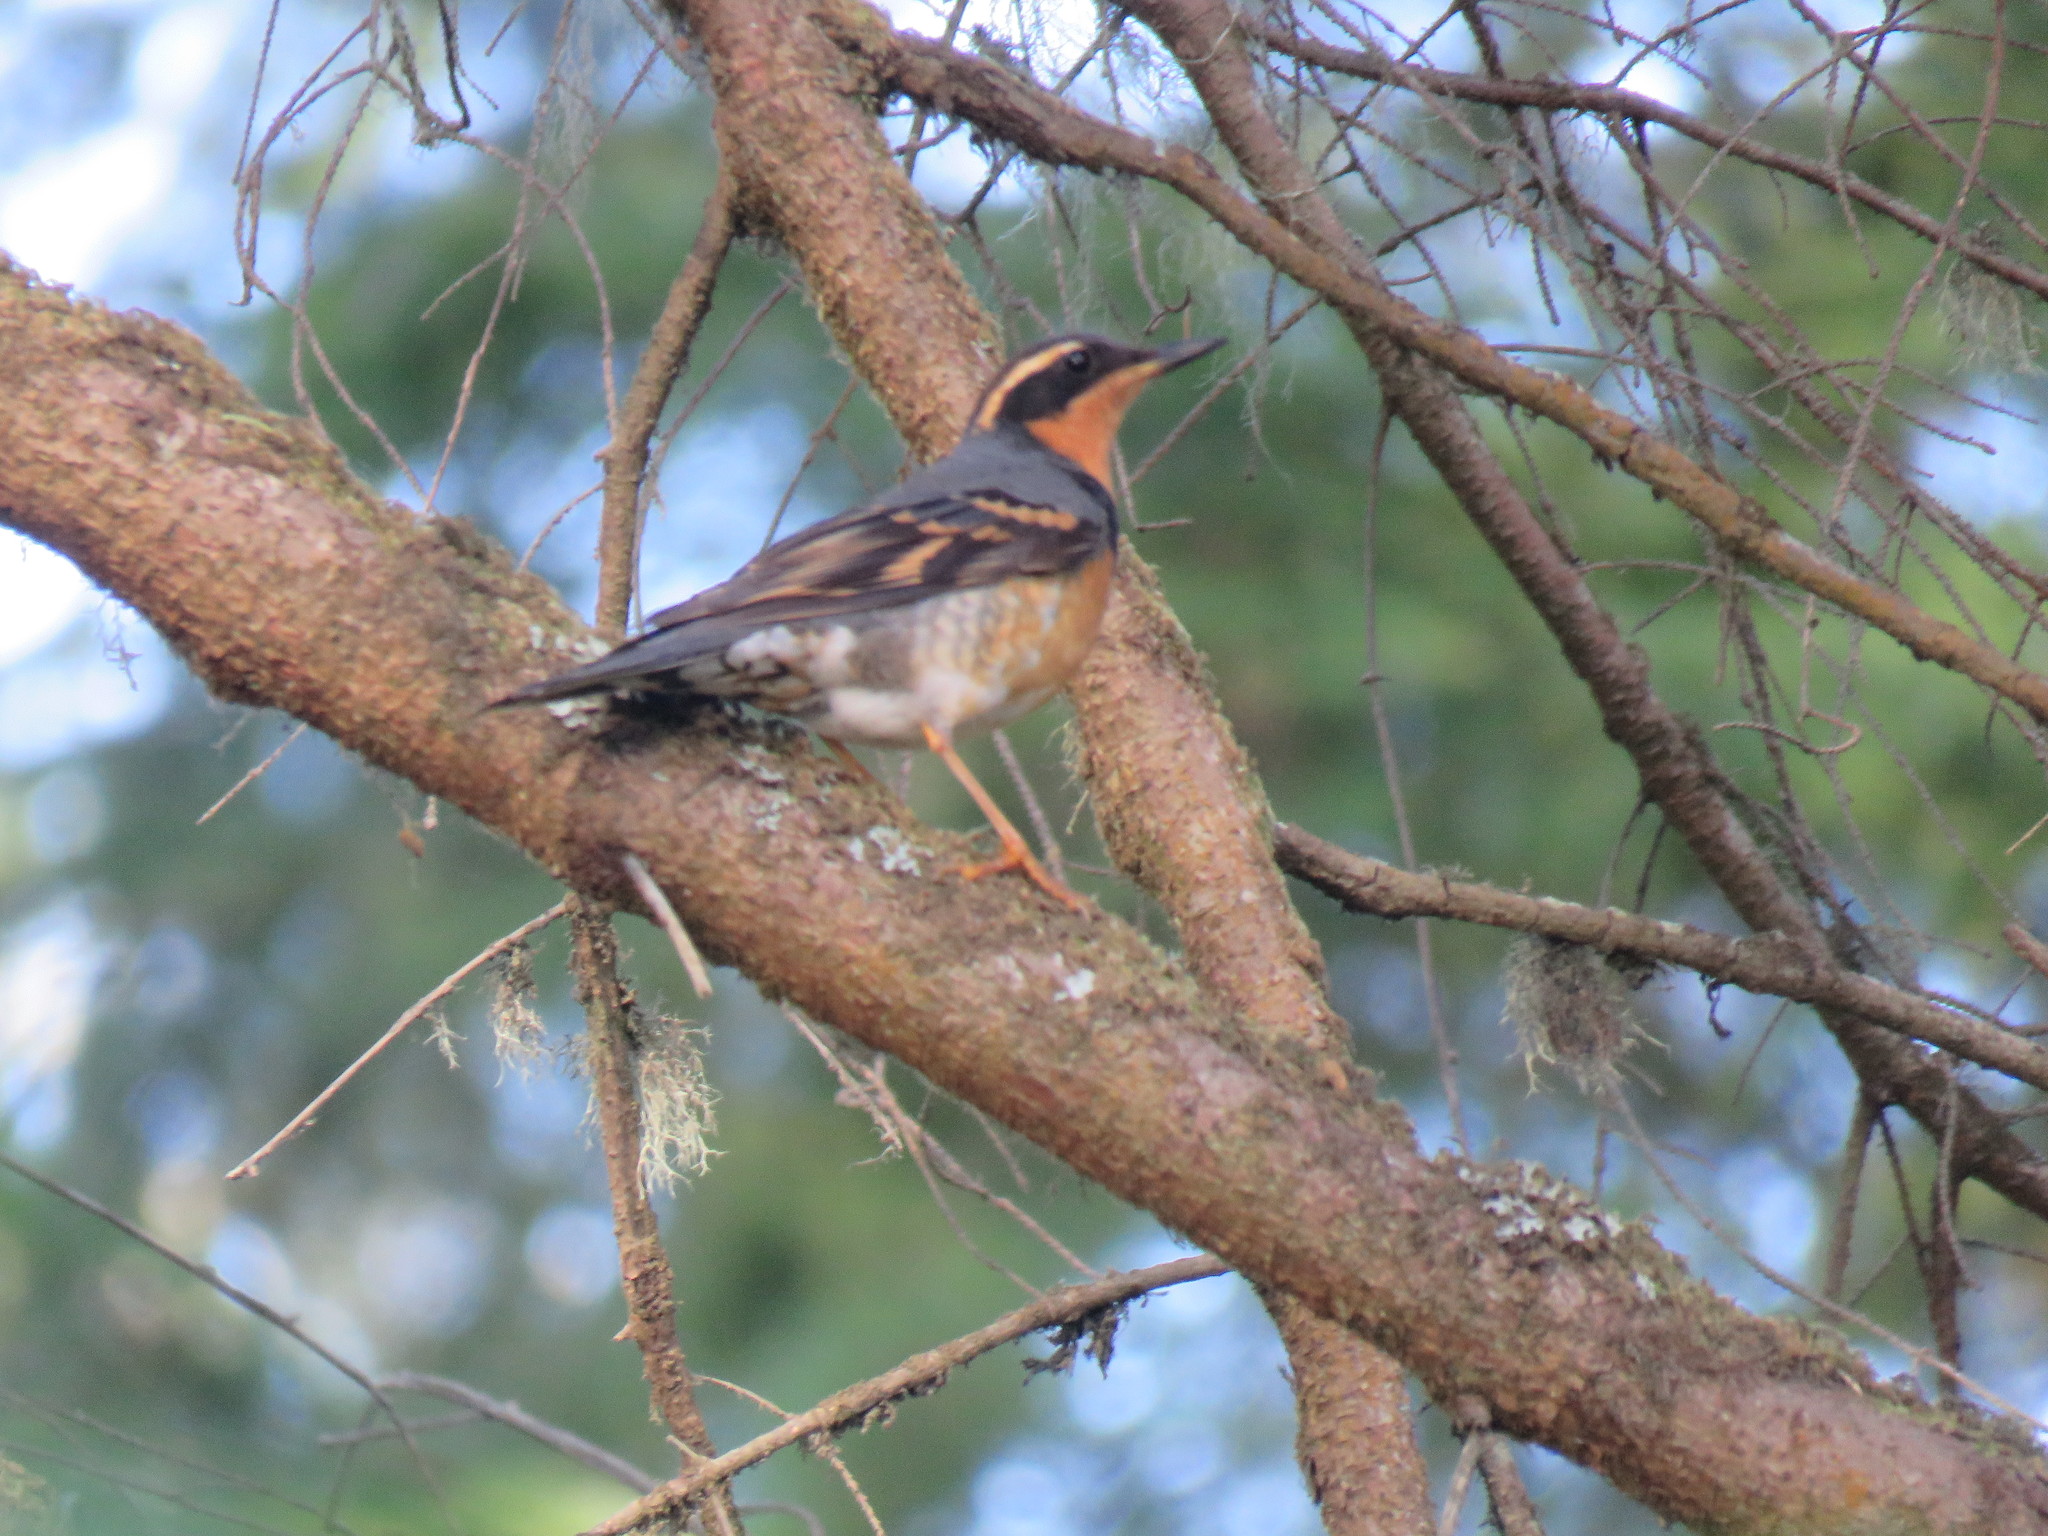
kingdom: Animalia
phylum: Chordata
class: Aves
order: Passeriformes
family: Turdidae
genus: Ixoreus
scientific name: Ixoreus naevius
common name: Varied thrush
